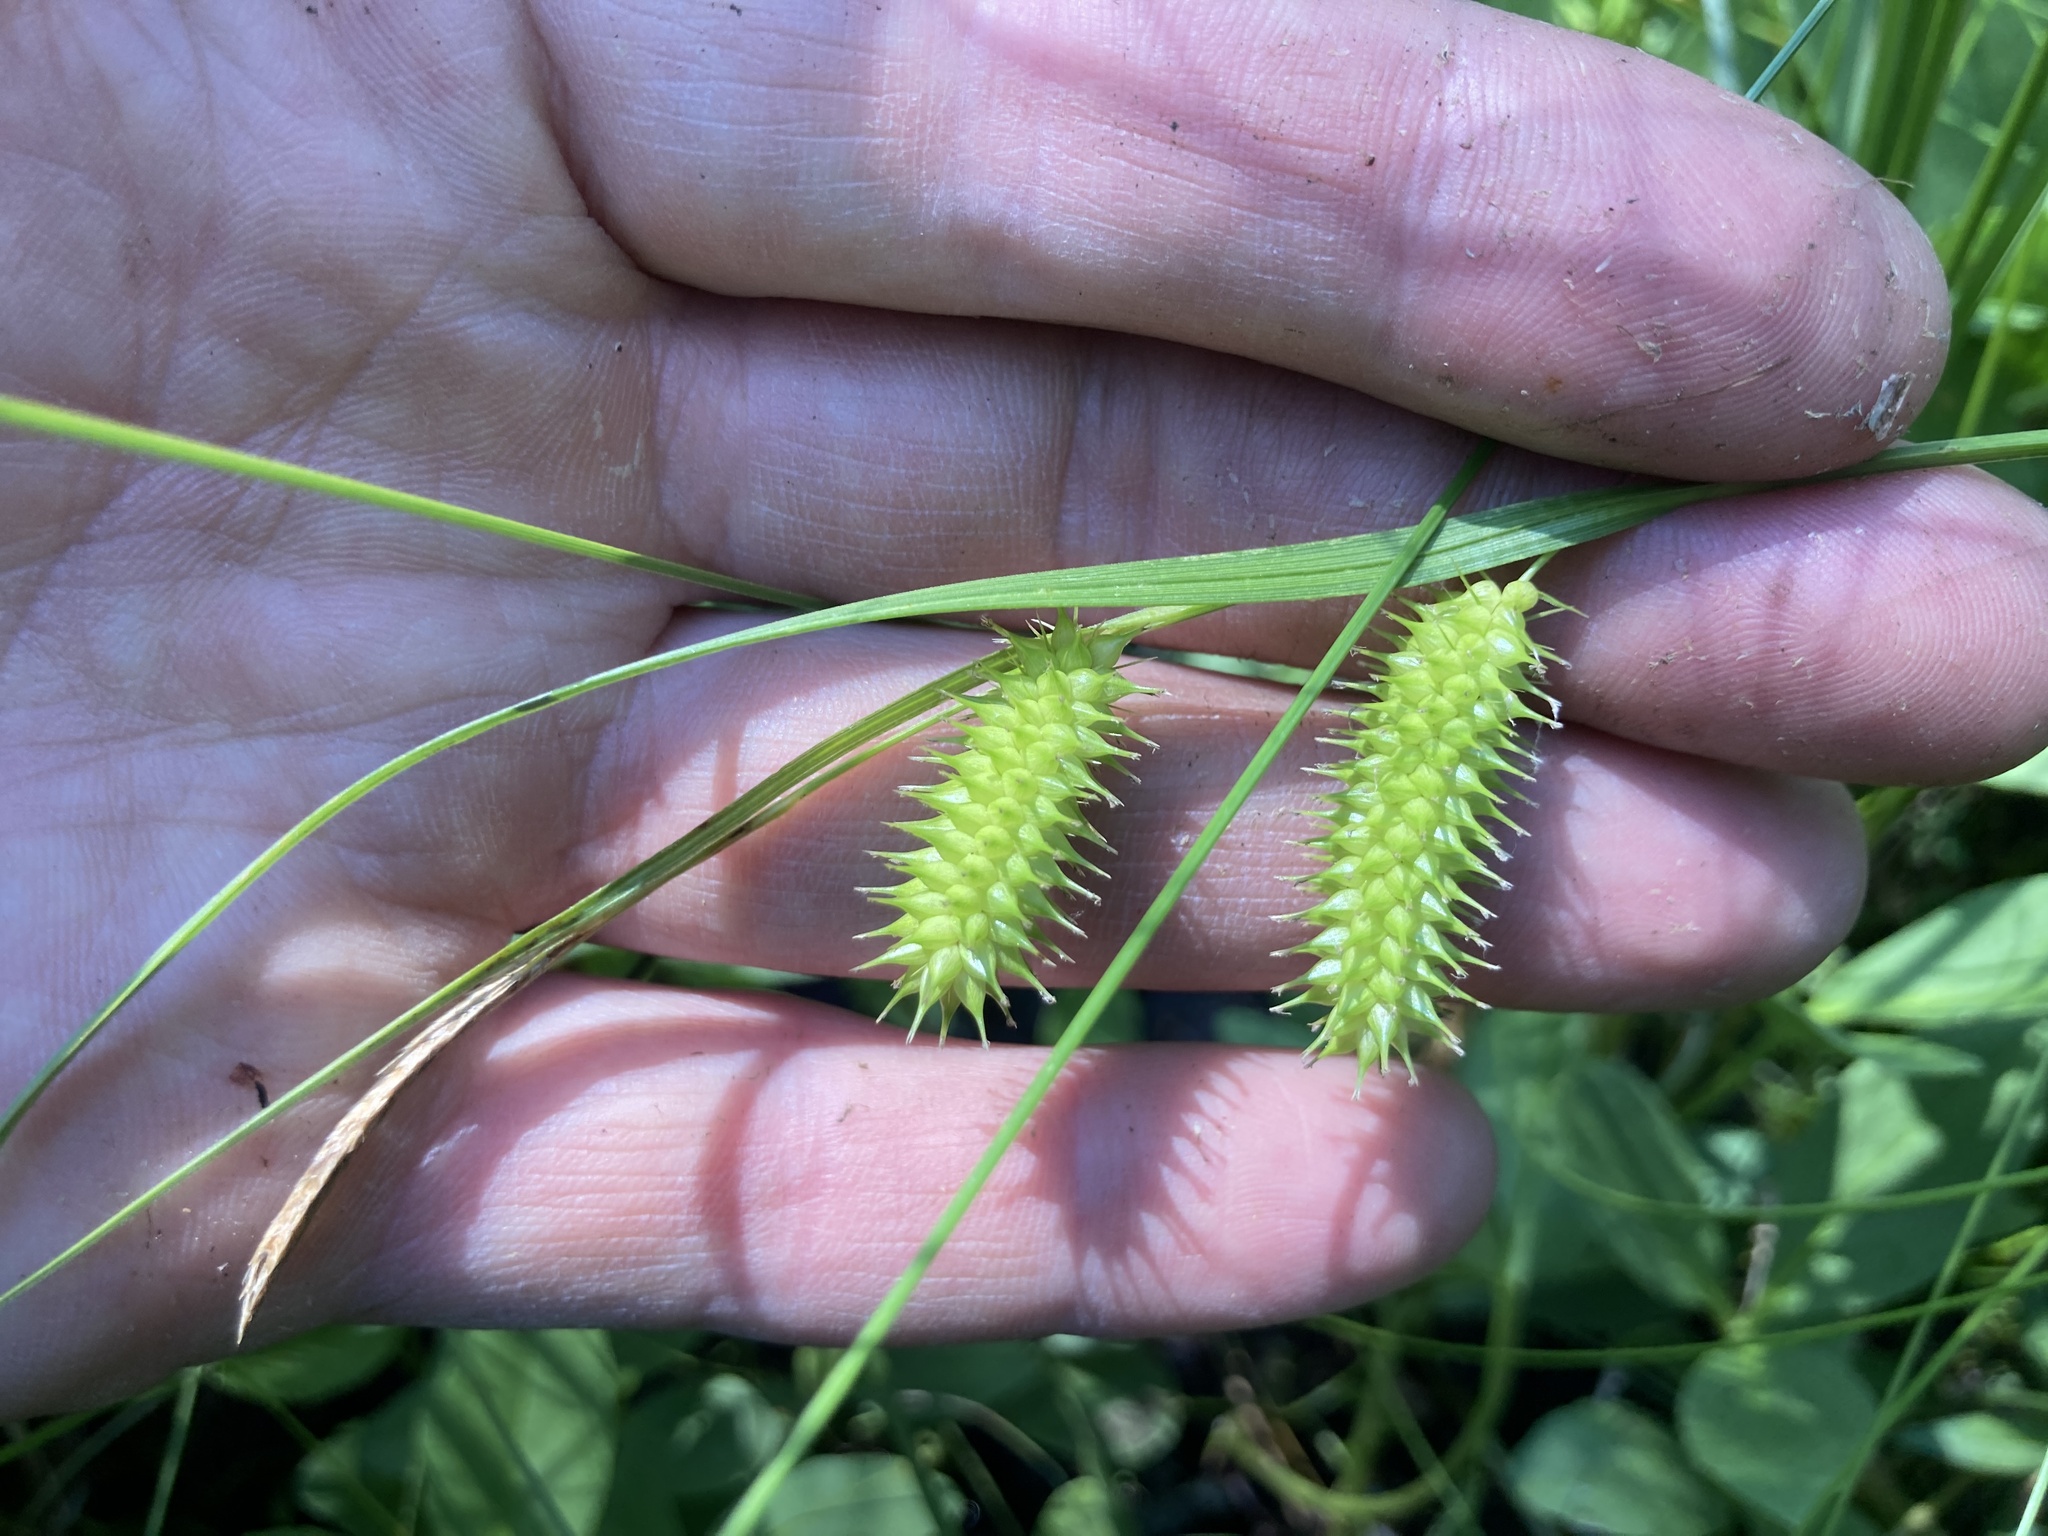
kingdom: Plantae
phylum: Tracheophyta
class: Liliopsida
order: Poales
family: Cyperaceae
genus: Carex
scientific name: Carex hystericina
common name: Bottlebrush sedge
